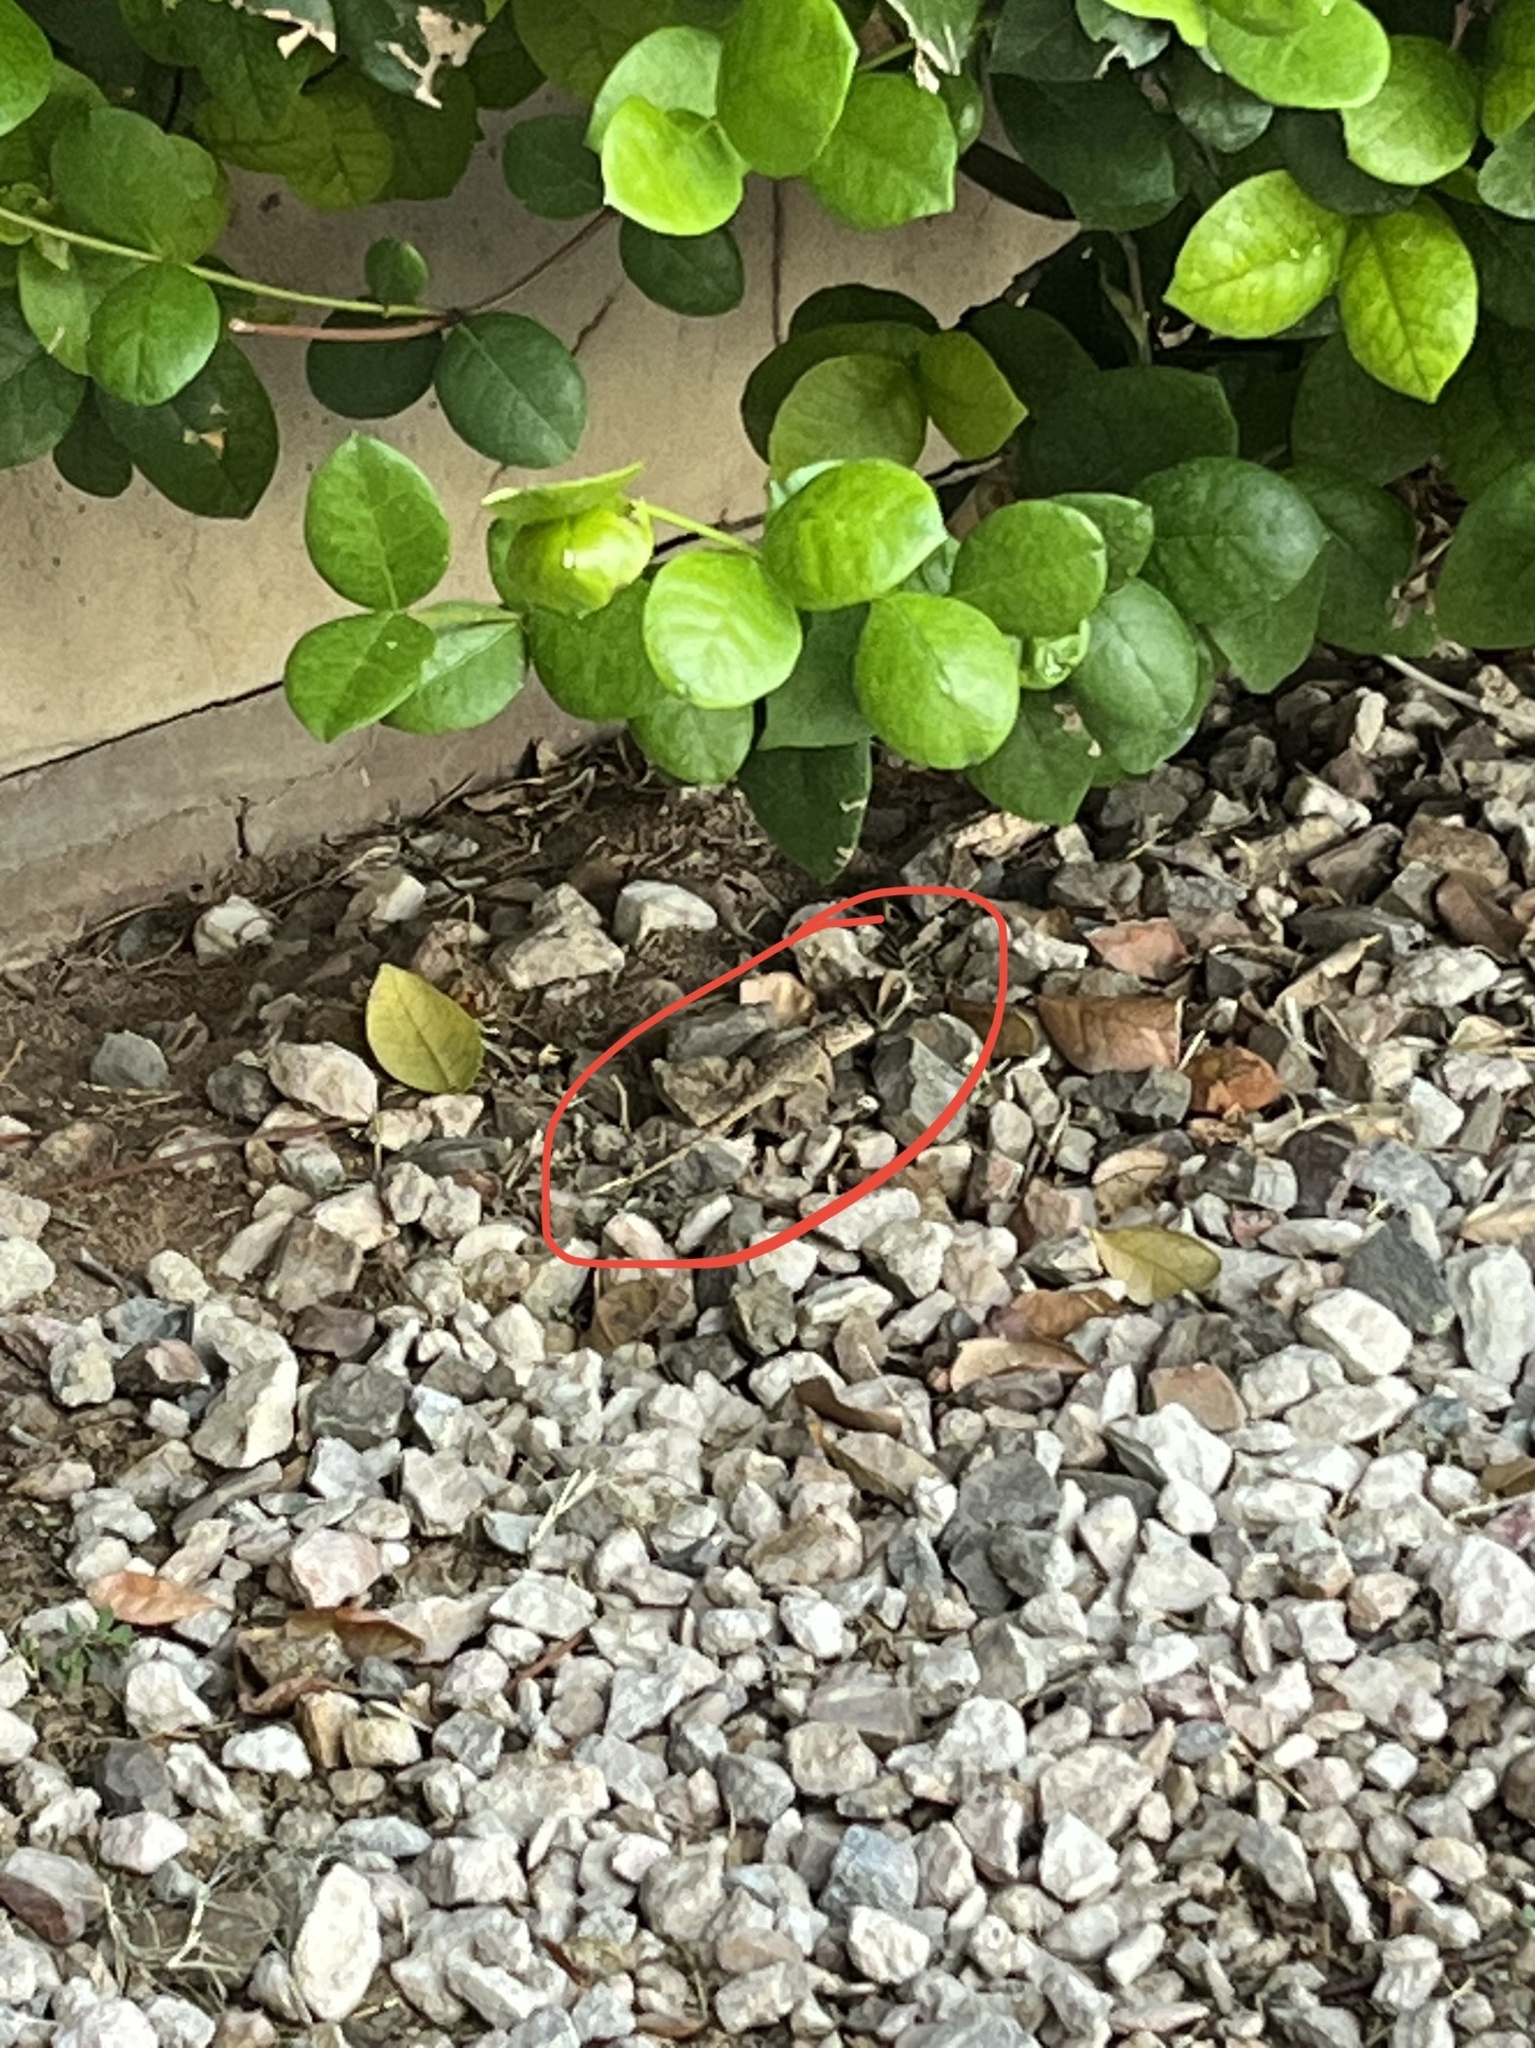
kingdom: Animalia
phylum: Chordata
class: Squamata
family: Phrynosomatidae
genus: Sceloporus
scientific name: Sceloporus magister
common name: Desert spiny lizard
